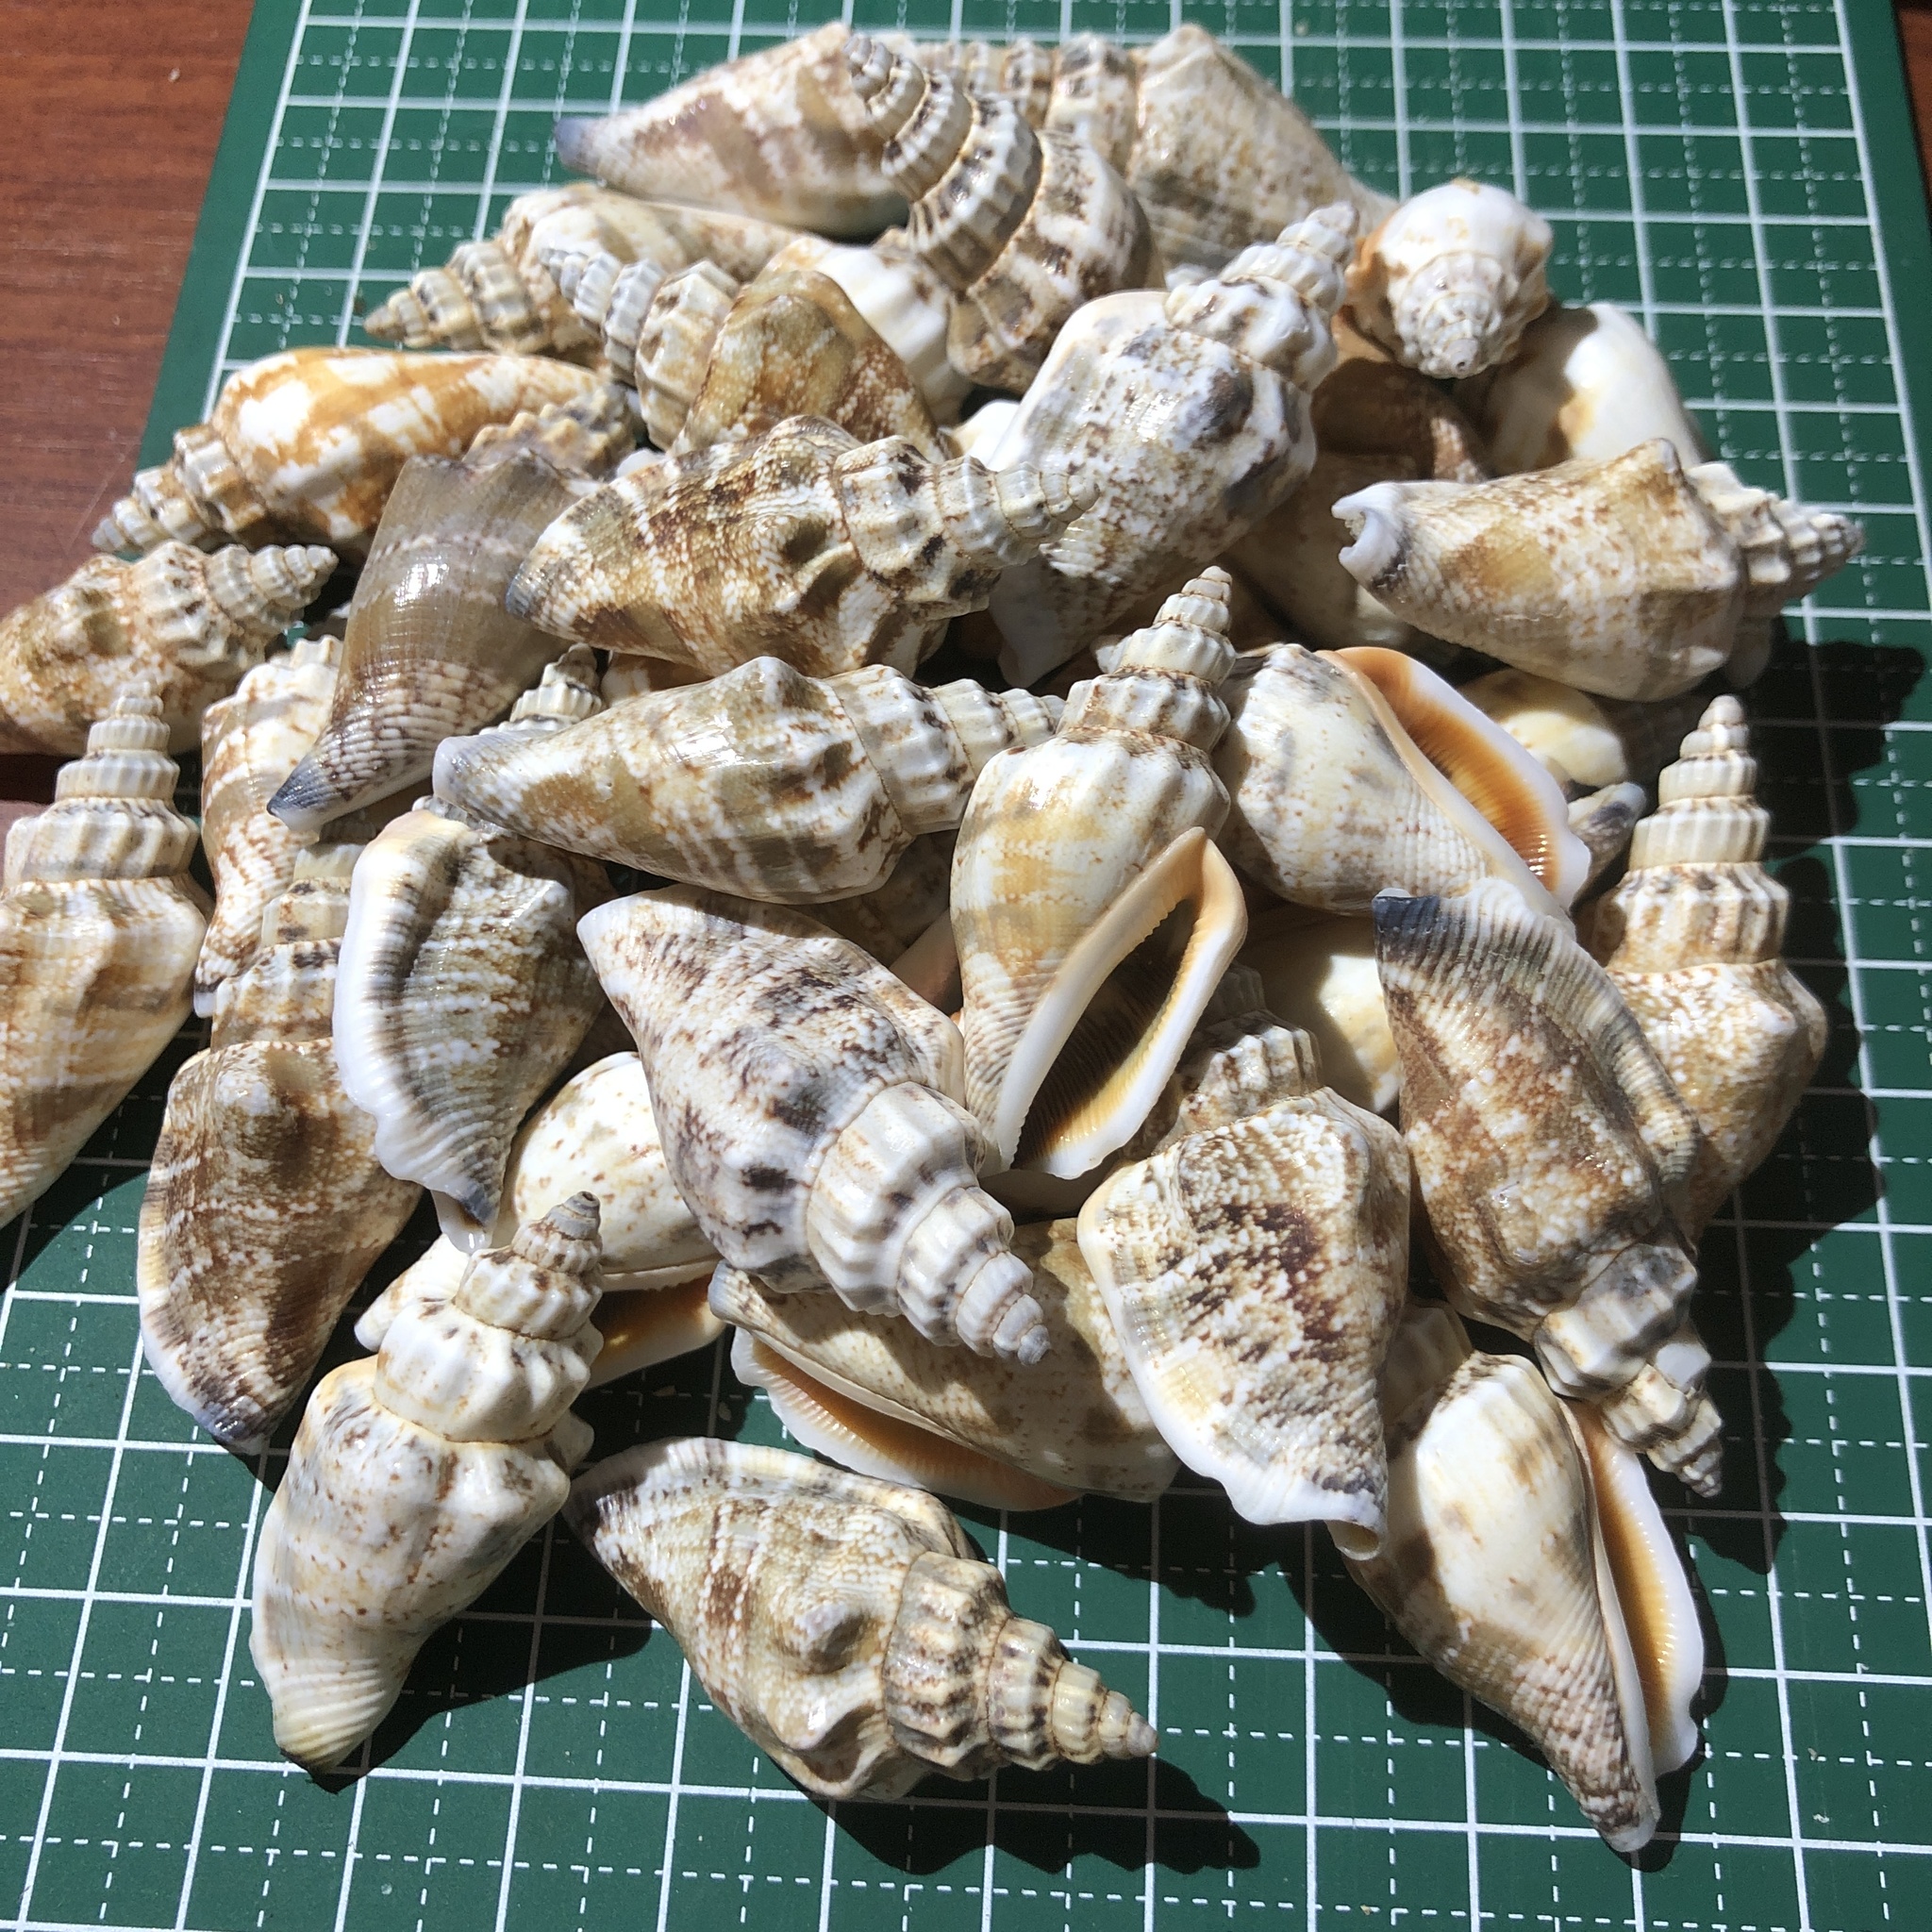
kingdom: Animalia
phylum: Mollusca
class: Gastropoda
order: Littorinimorpha
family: Strombidae
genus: Canarium
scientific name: Canarium urceus
